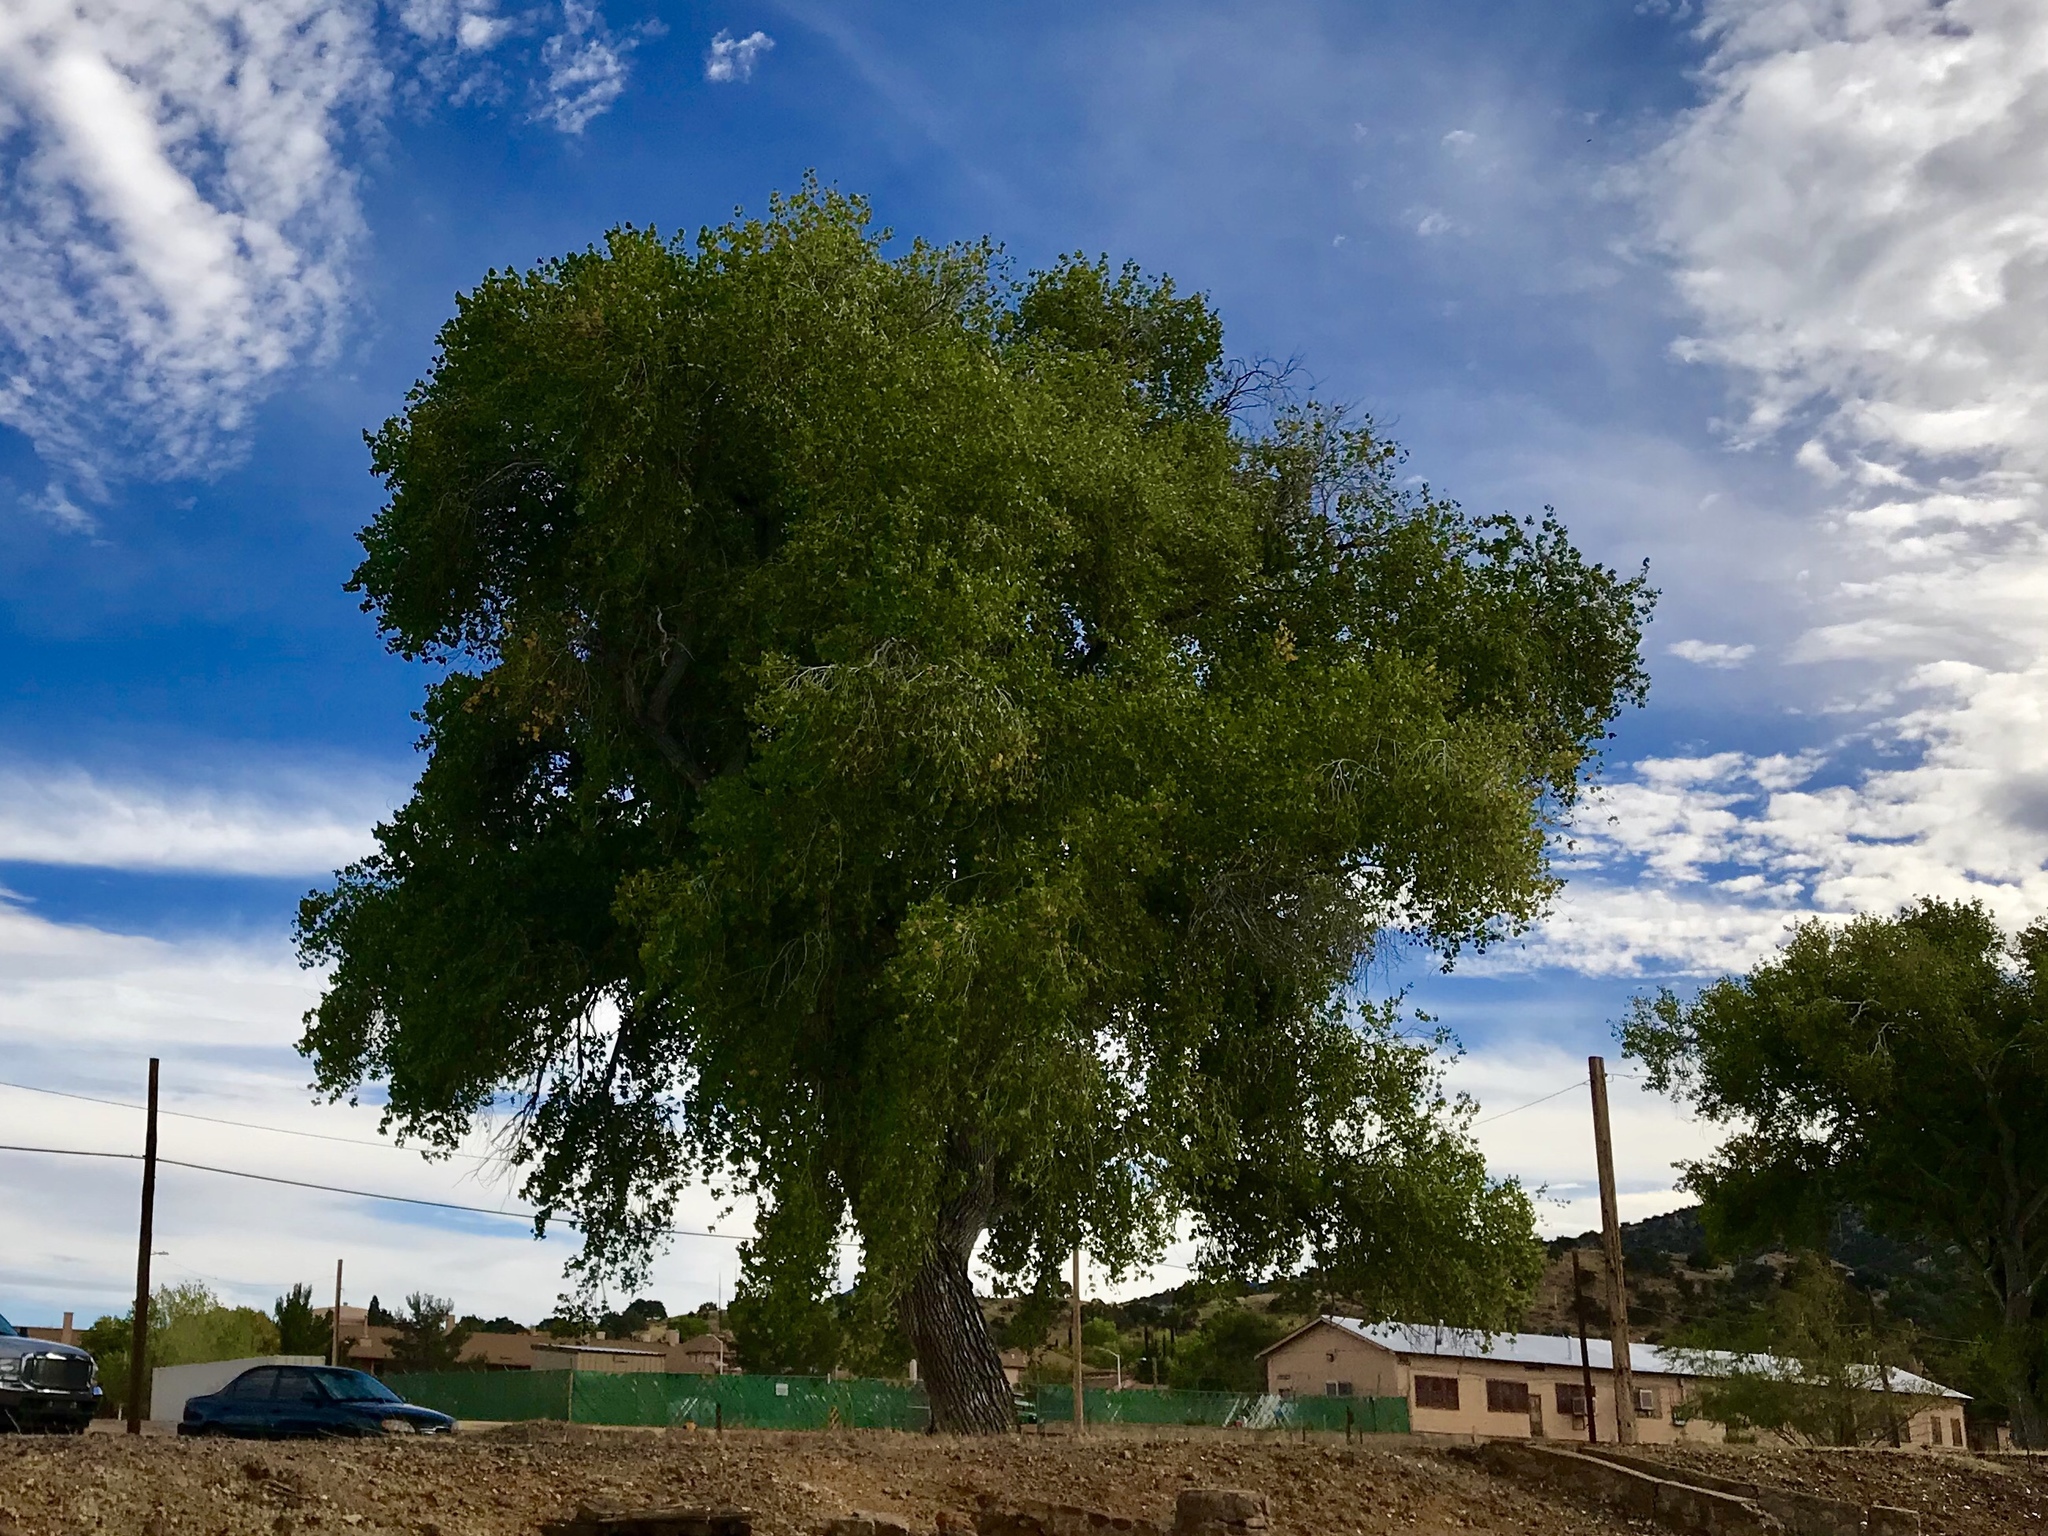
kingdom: Plantae
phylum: Tracheophyta
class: Magnoliopsida
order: Malpighiales
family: Salicaceae
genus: Populus
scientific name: Populus fremontii
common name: Fremont's cottonwood
